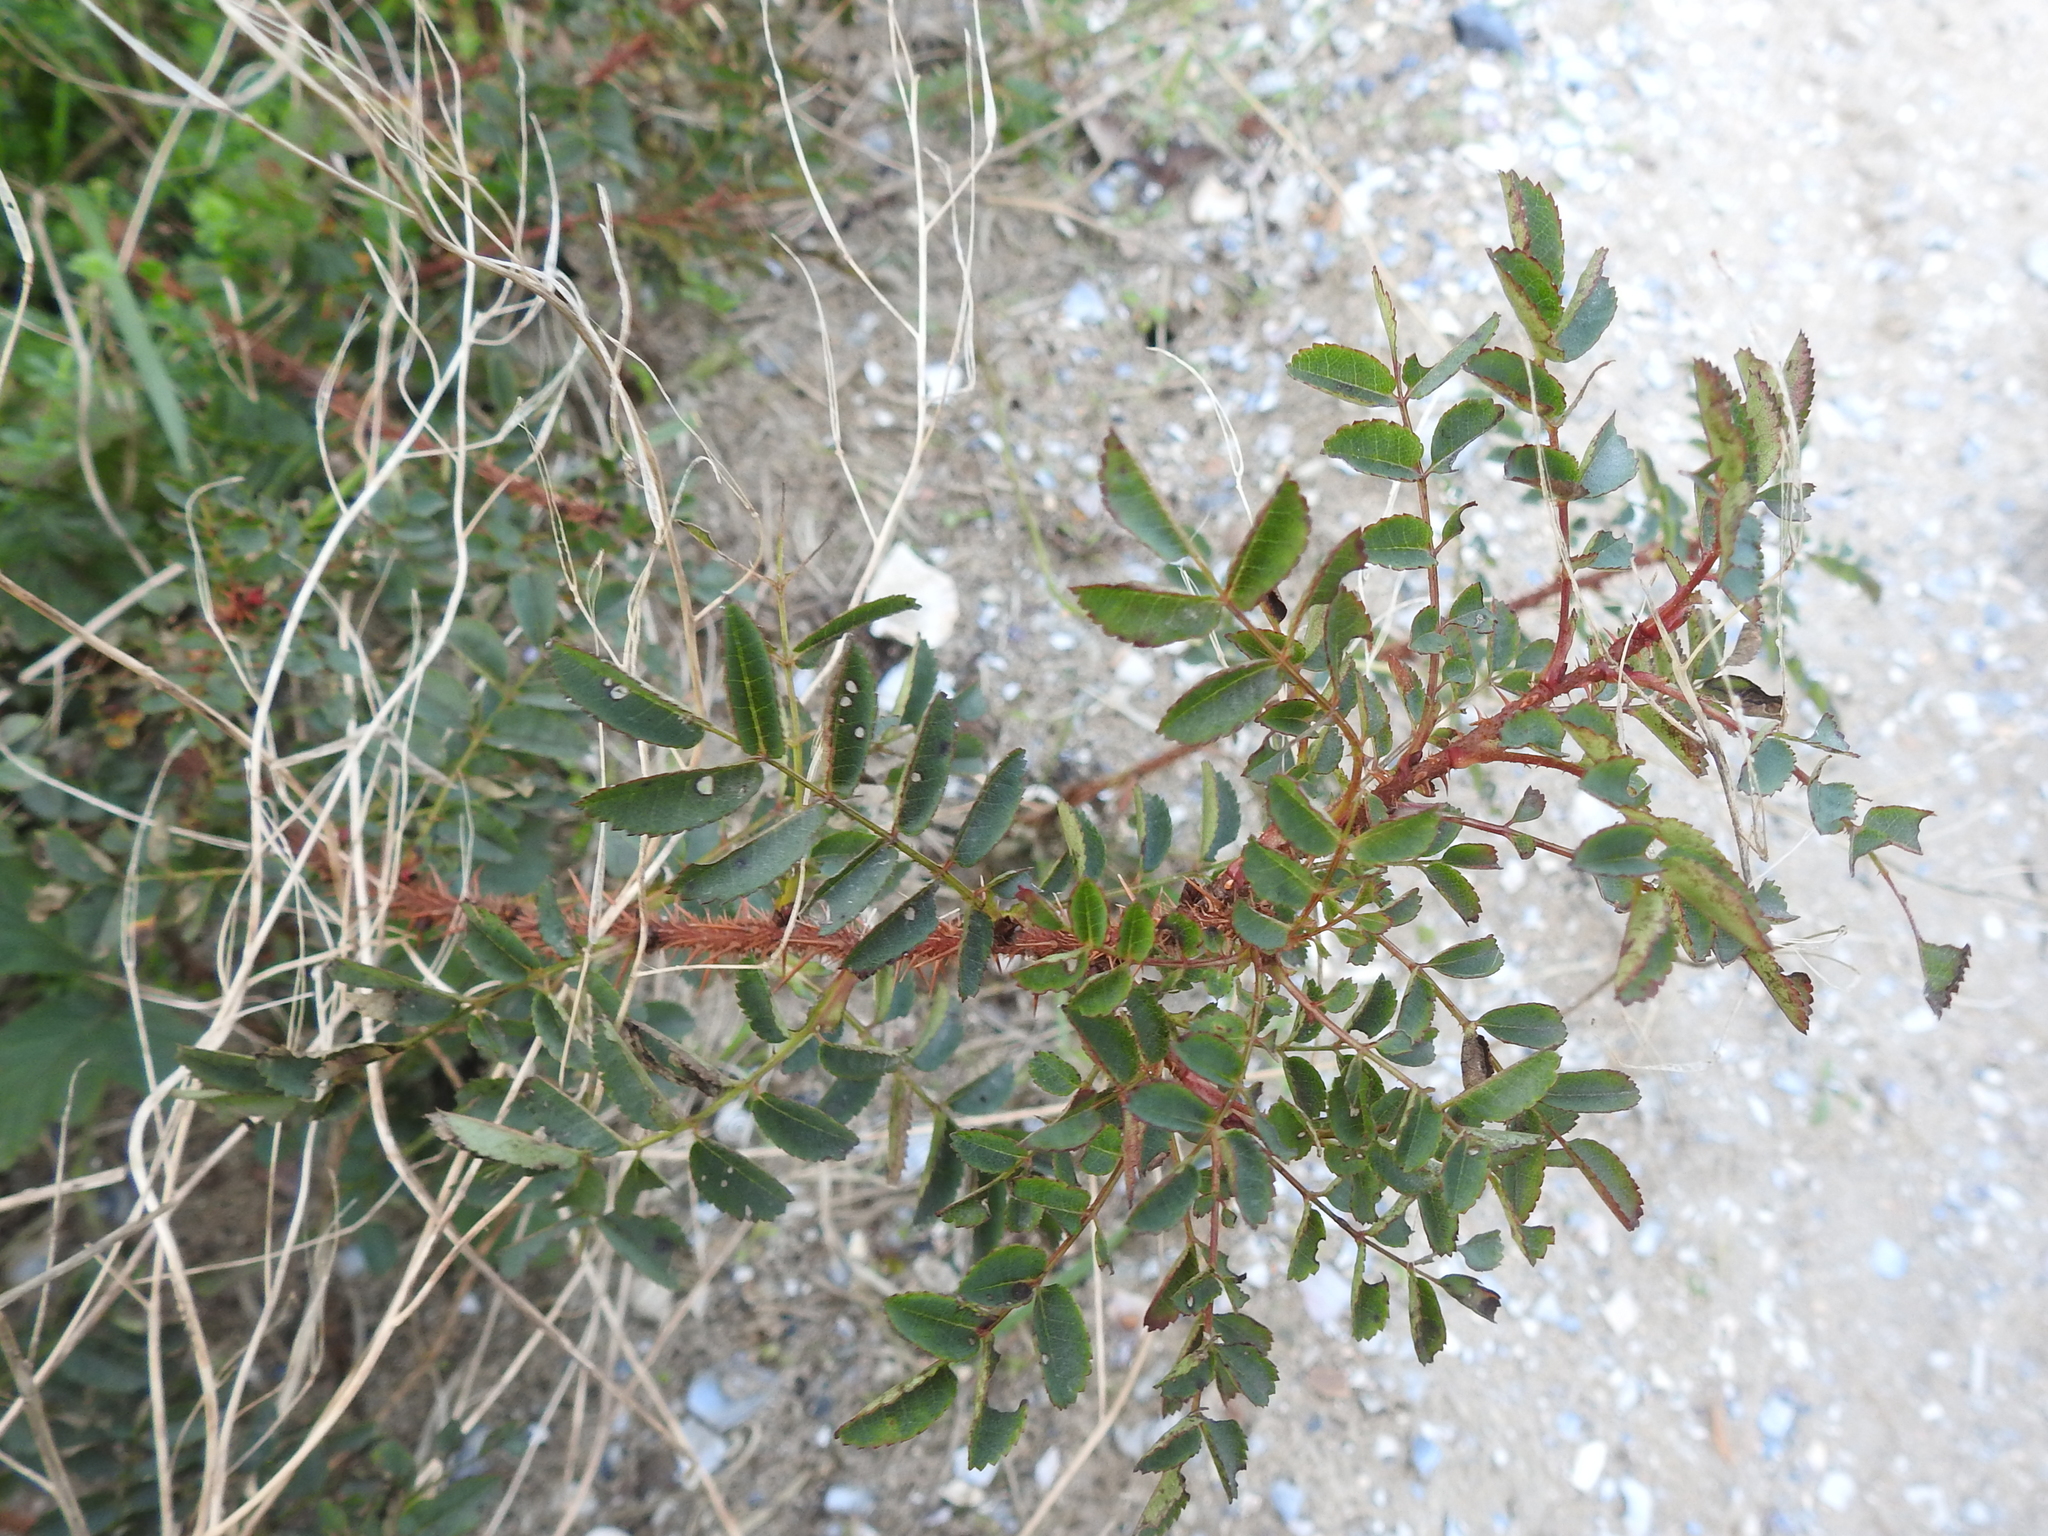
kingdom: Plantae
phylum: Tracheophyta
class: Magnoliopsida
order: Rosales
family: Rosaceae
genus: Rosa
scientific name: Rosa spinosissima
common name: Burnet rose
